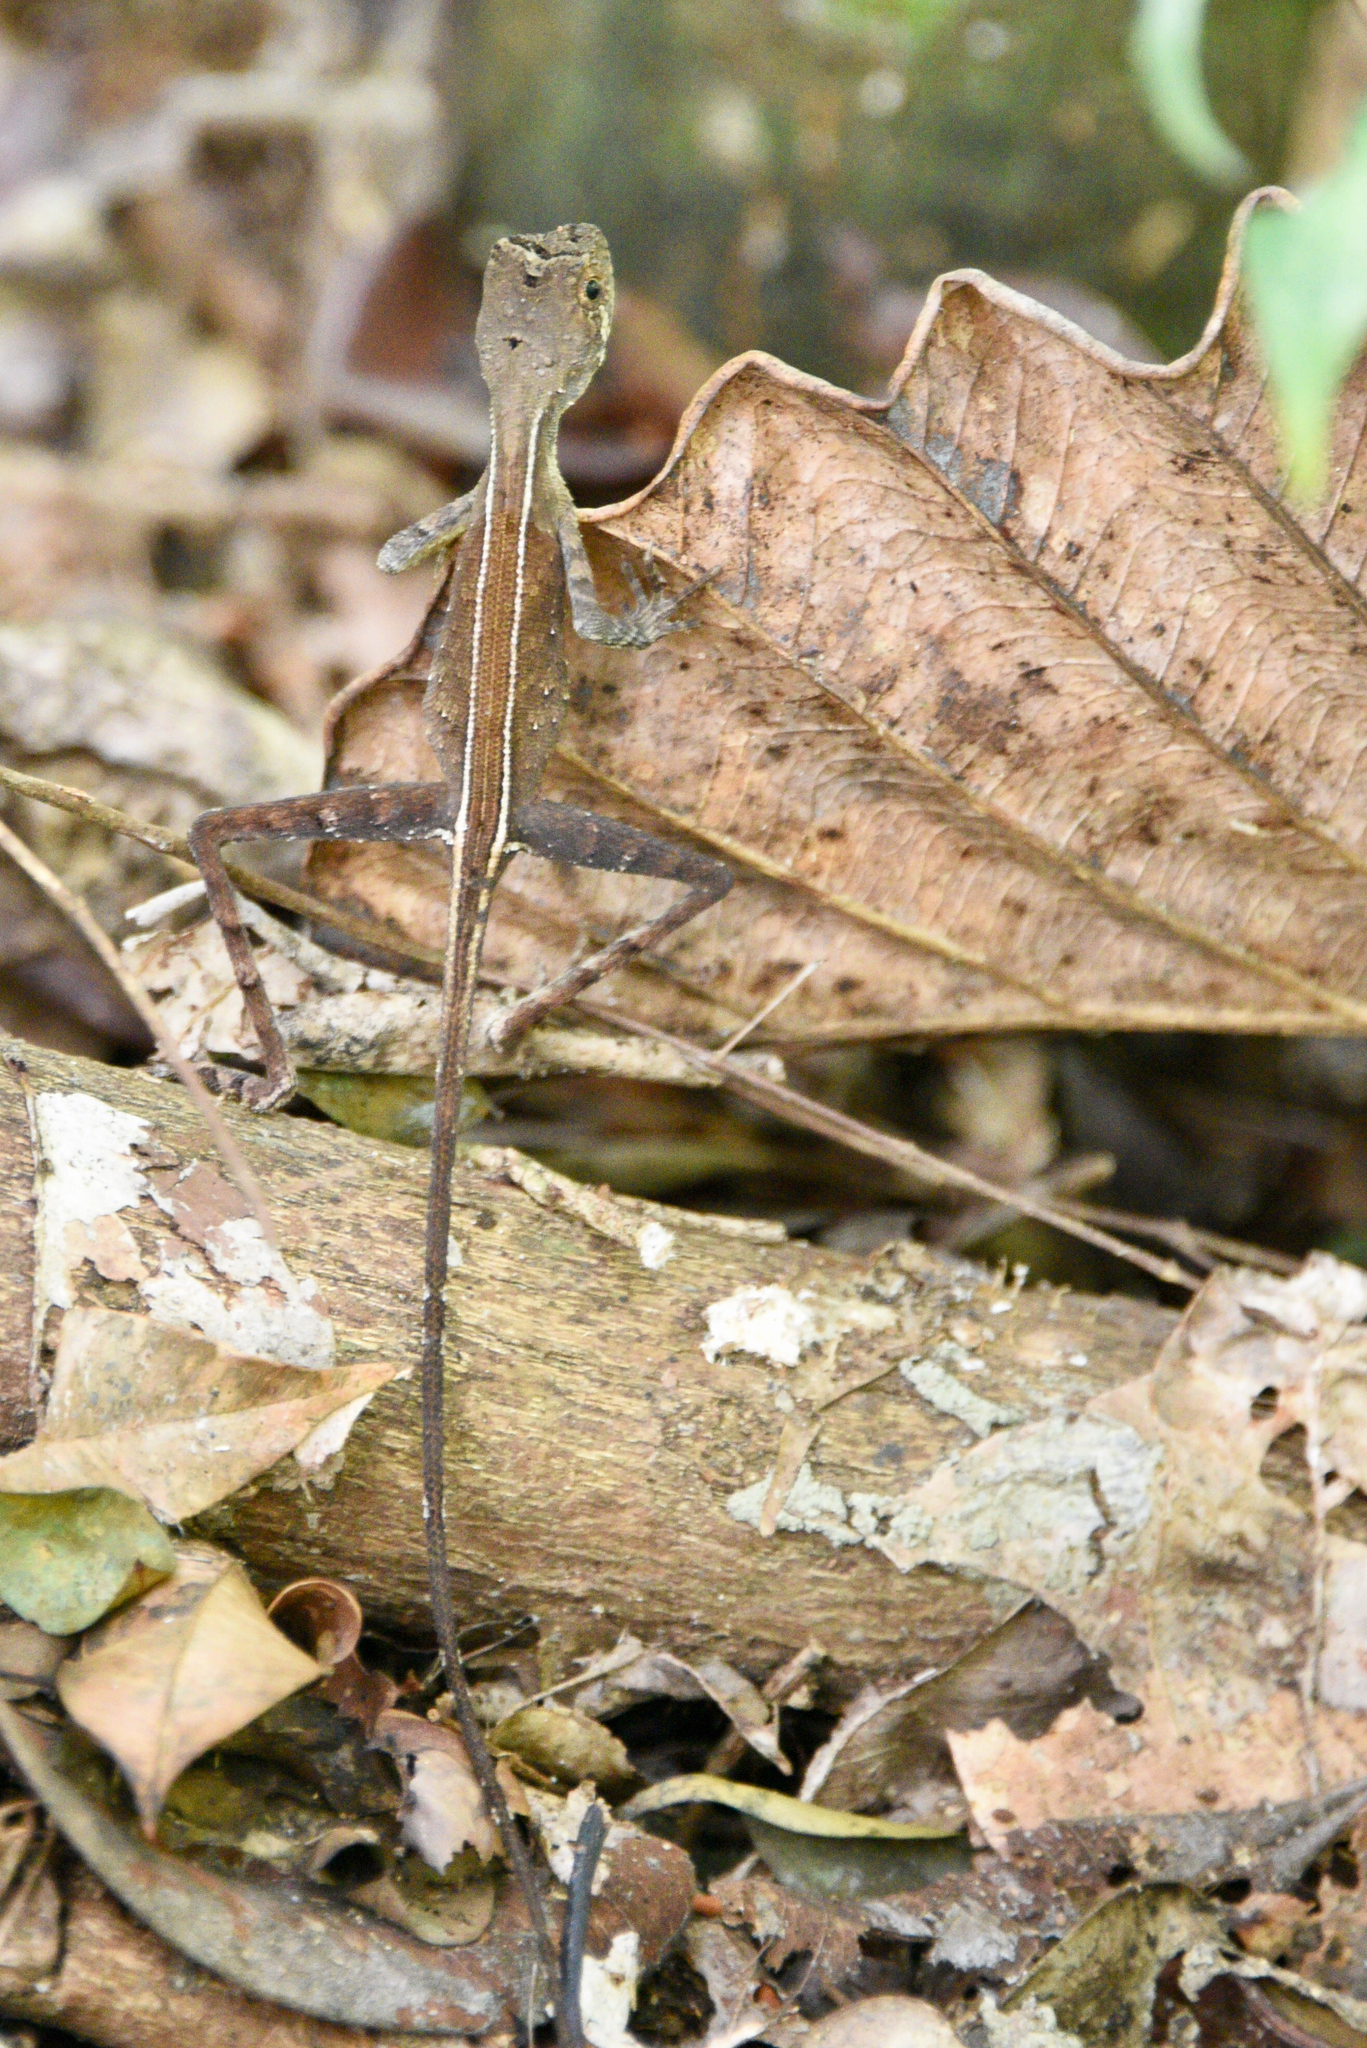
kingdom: Animalia
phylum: Chordata
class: Squamata
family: Agamidae
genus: Otocryptis
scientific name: Otocryptis wiegmanni
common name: Wiegmann's agama
